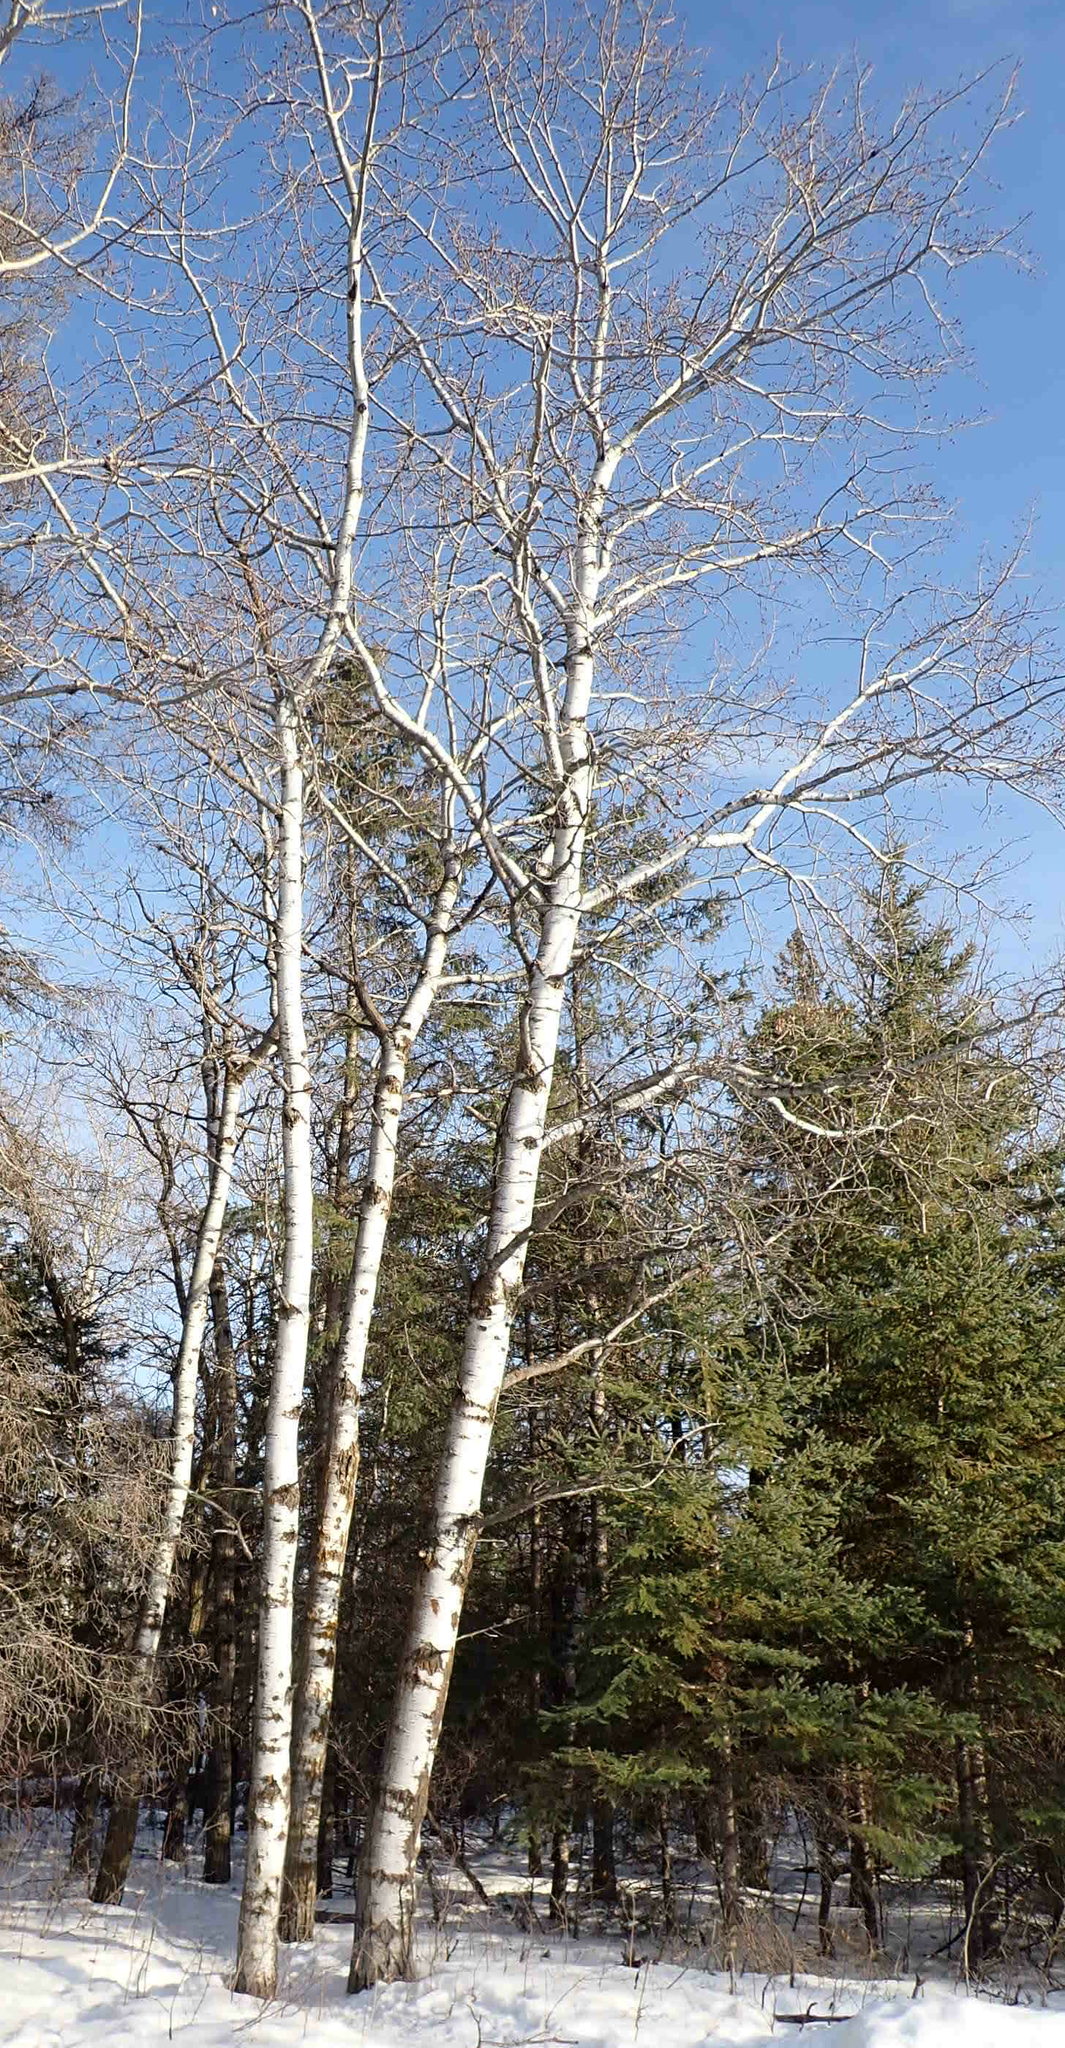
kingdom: Plantae
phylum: Tracheophyta
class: Magnoliopsida
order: Malpighiales
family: Salicaceae
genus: Populus
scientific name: Populus tremuloides
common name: Quaking aspen
